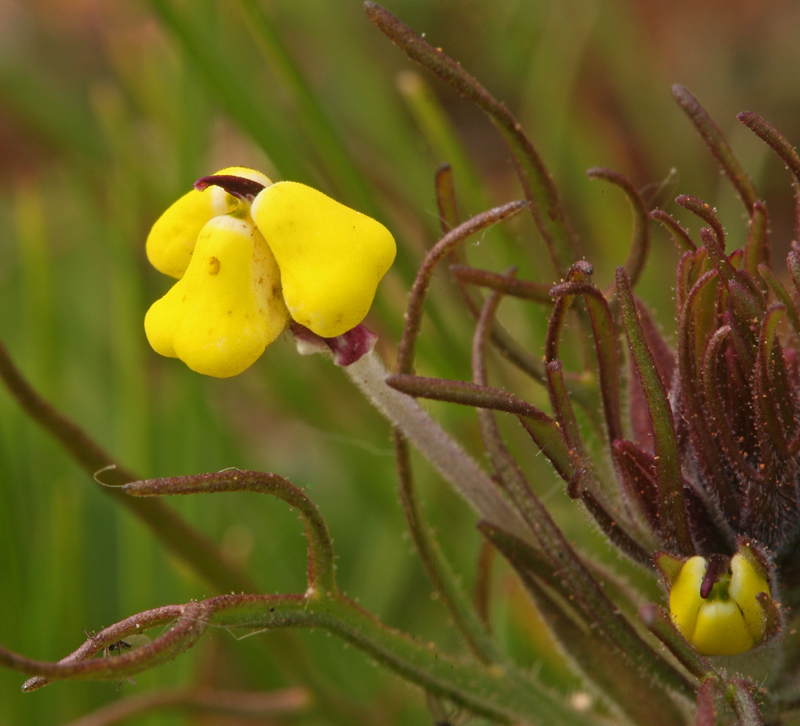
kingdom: Plantae
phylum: Tracheophyta
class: Magnoliopsida
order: Lamiales
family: Orobanchaceae
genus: Triphysaria
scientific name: Triphysaria eriantha
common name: Johnny-tuck
